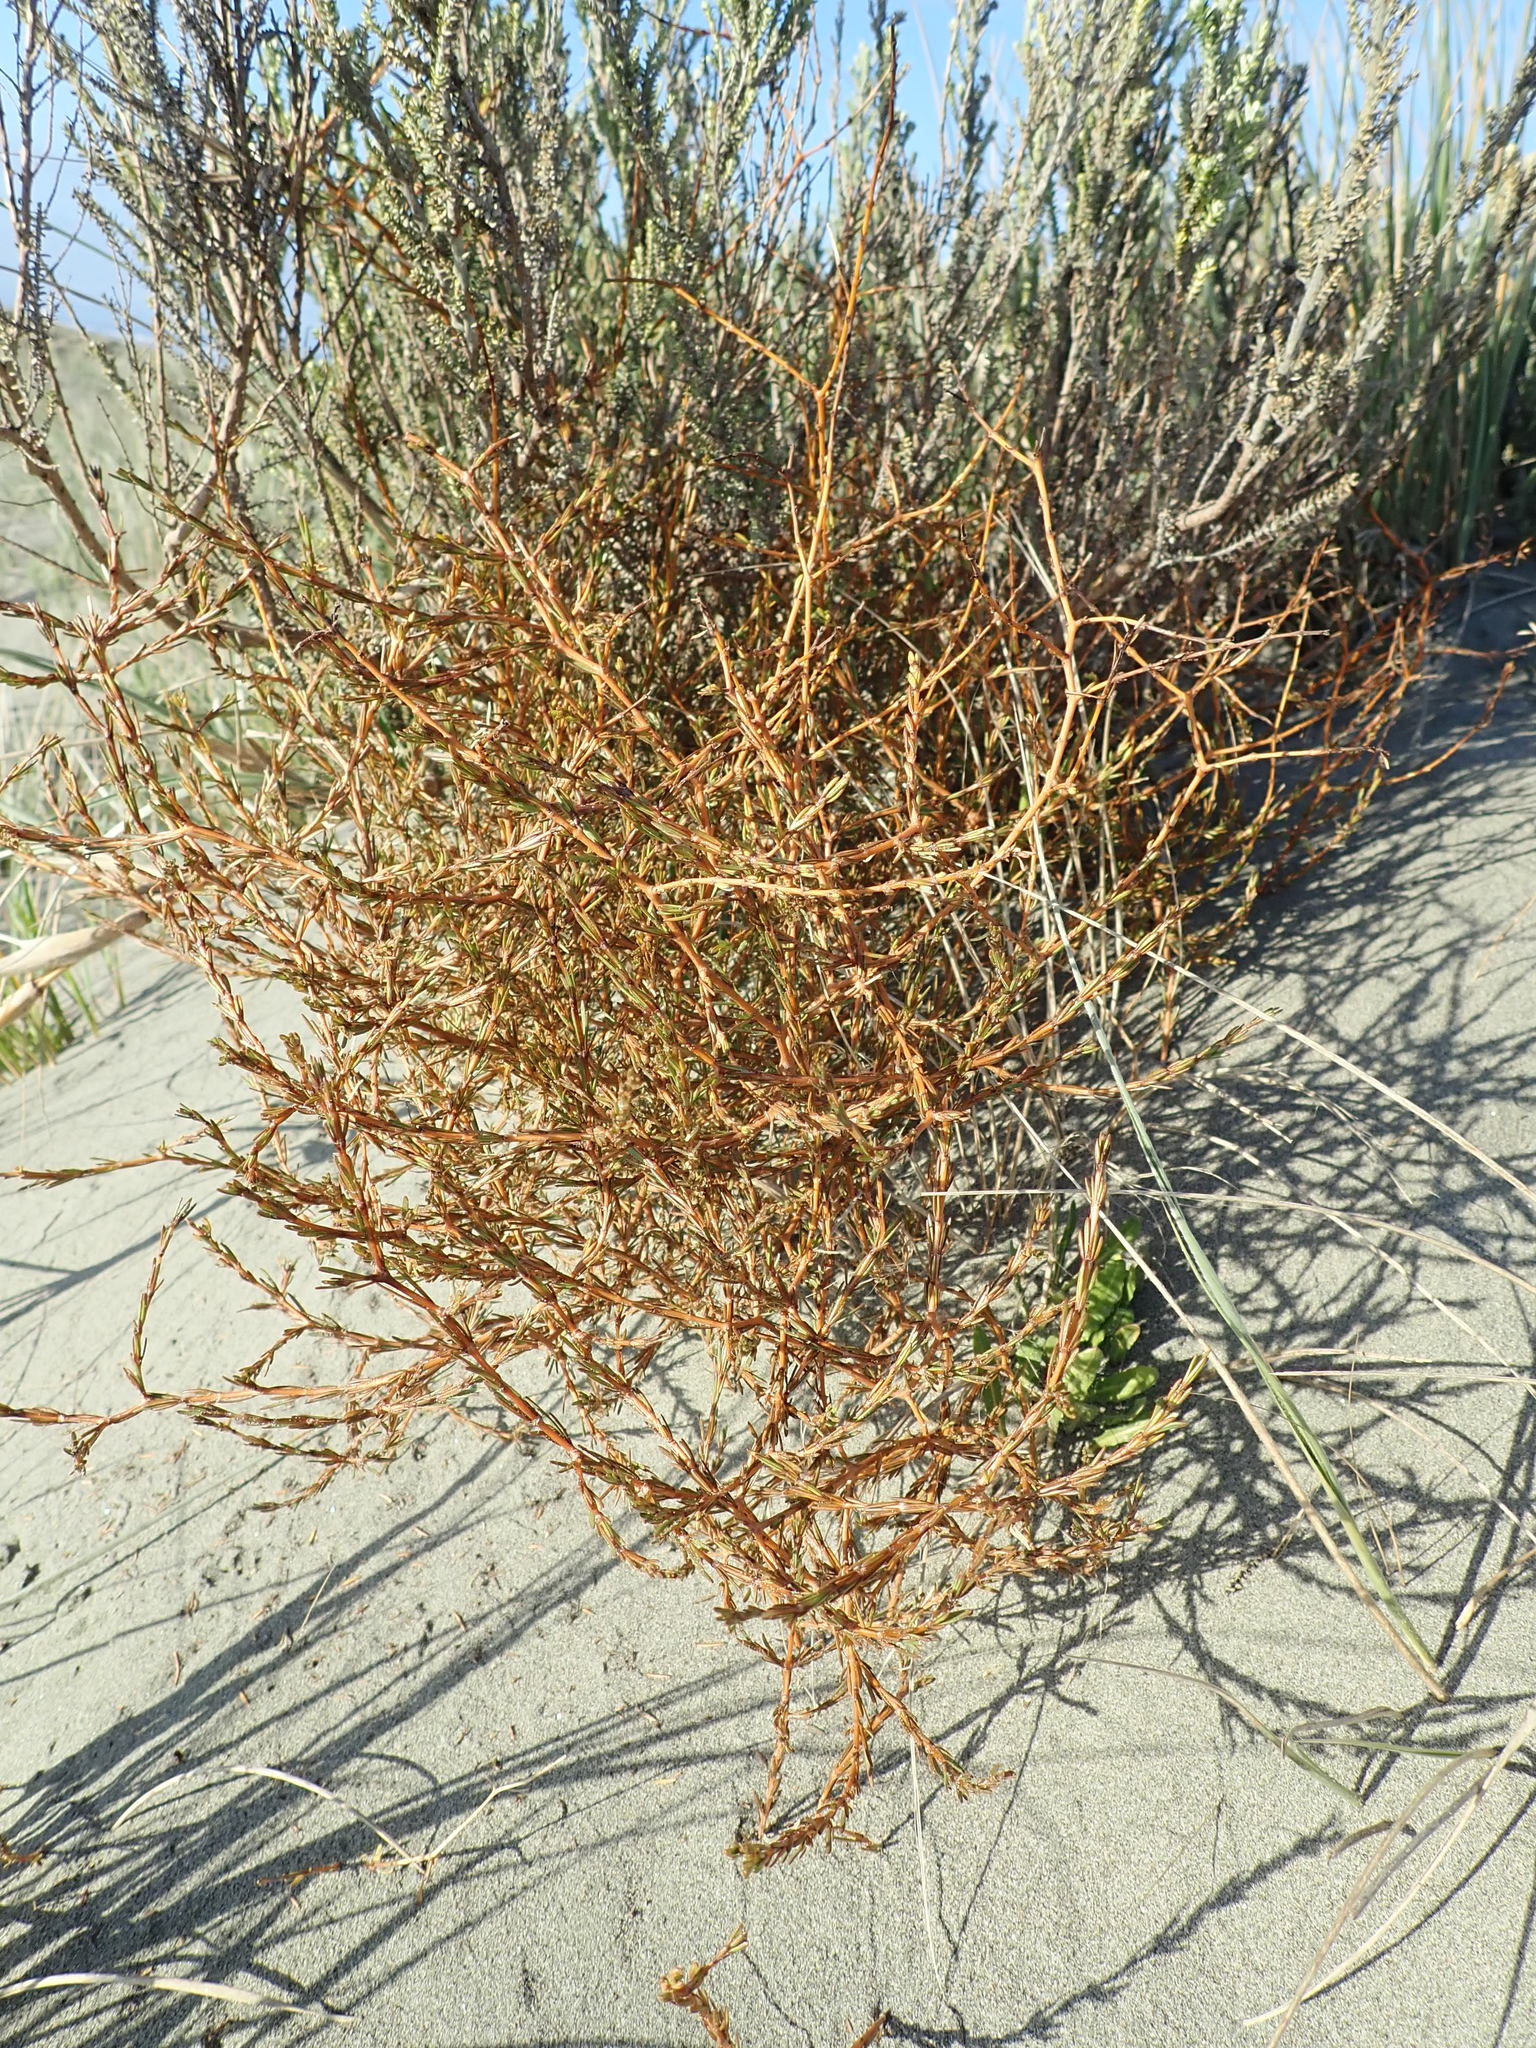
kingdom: Plantae
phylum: Tracheophyta
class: Magnoliopsida
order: Gentianales
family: Rubiaceae
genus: Coprosma
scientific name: Coprosma acerosa
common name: Sand coprosma
